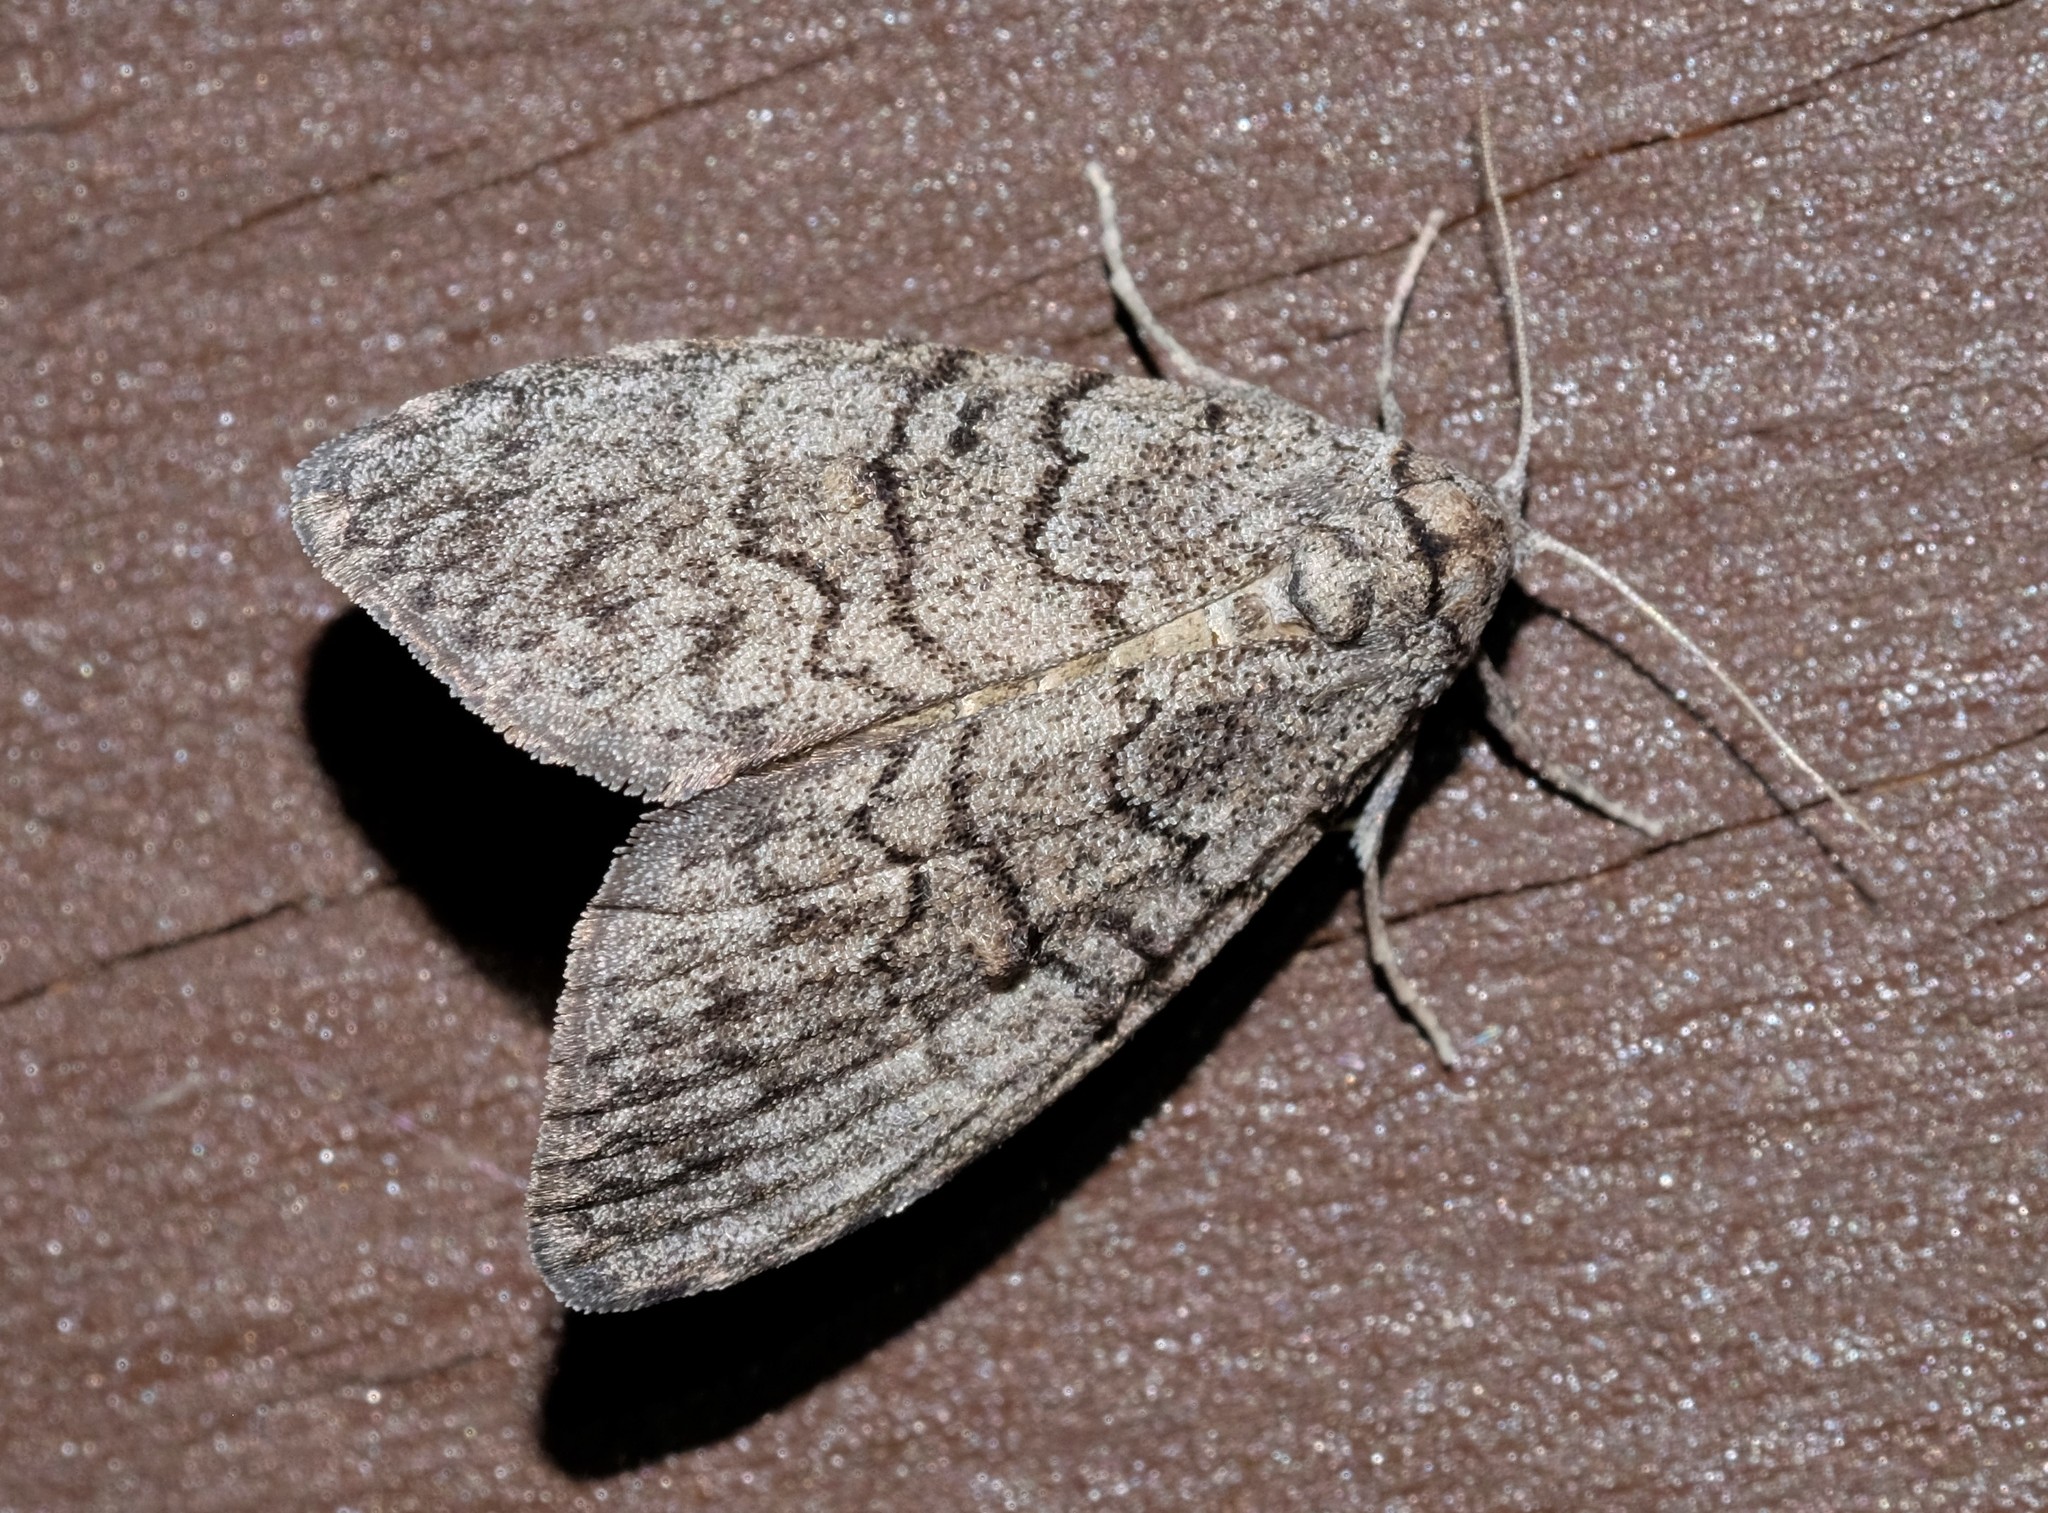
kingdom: Animalia
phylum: Arthropoda
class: Insecta
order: Lepidoptera
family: Nolidae
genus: Uraba
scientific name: Uraba lugens
